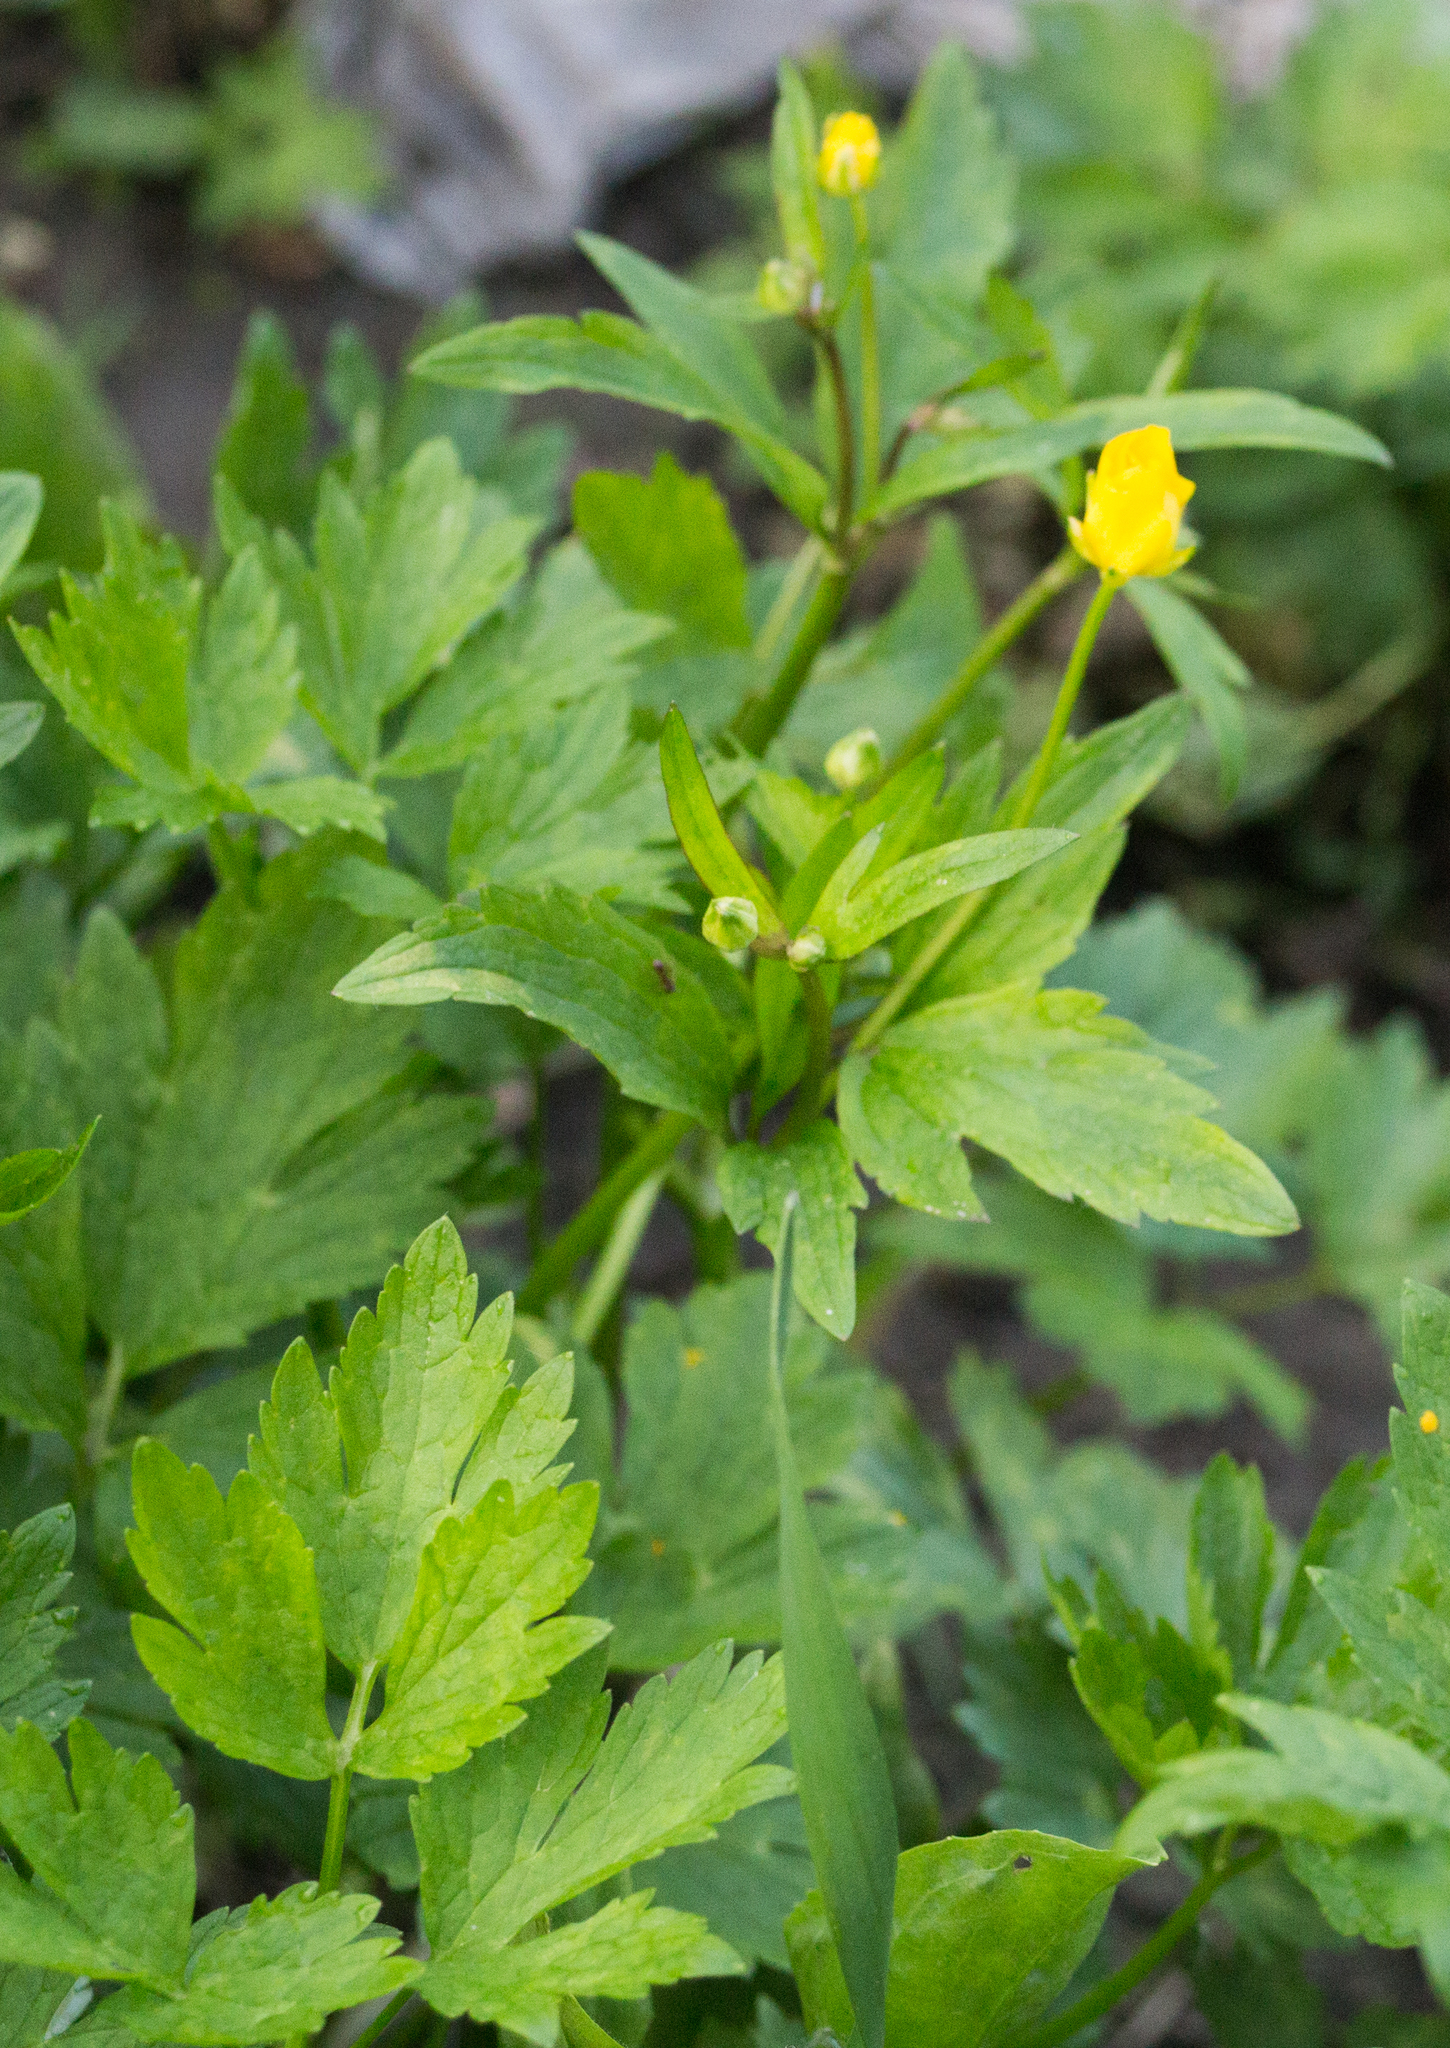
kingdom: Plantae
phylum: Tracheophyta
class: Magnoliopsida
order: Ranunculales
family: Ranunculaceae
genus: Ranunculus
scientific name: Ranunculus repens
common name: Creeping buttercup
